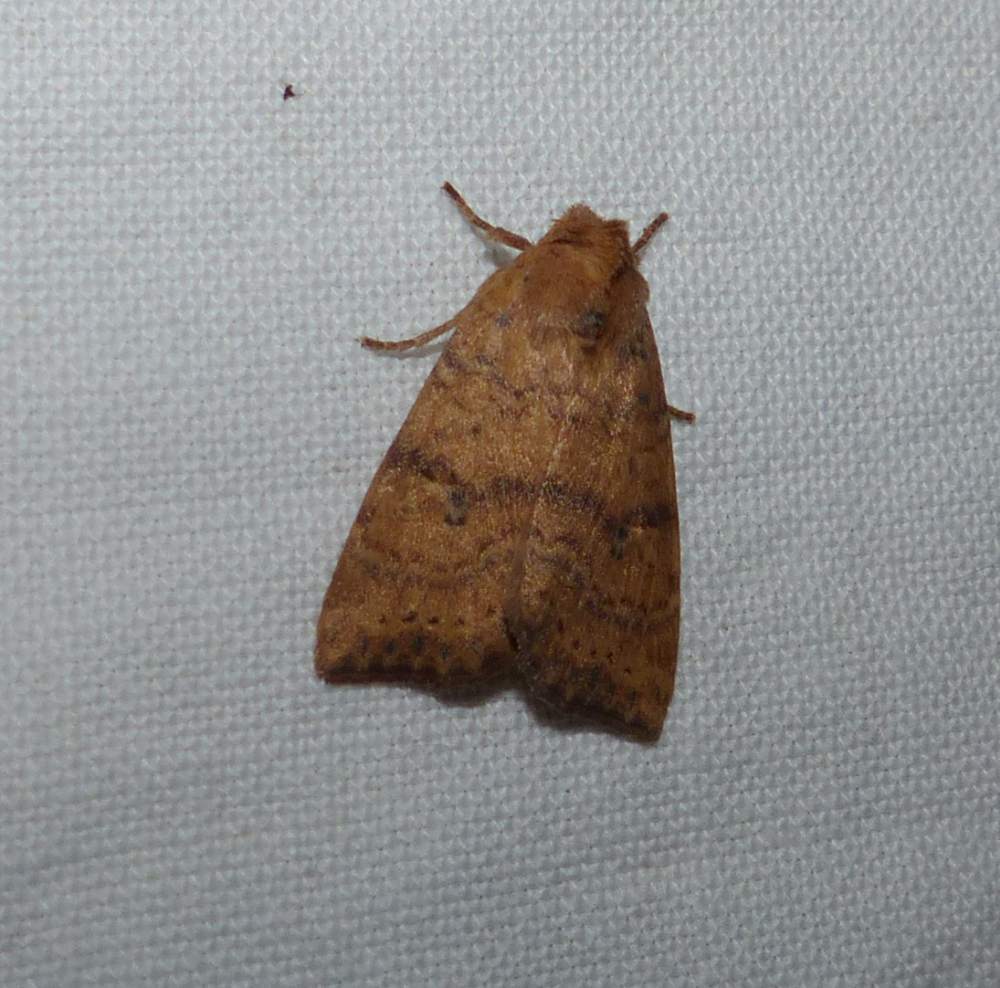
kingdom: Animalia
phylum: Arthropoda
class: Insecta
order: Lepidoptera
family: Noctuidae
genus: Anathix
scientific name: Anathix ralla
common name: Dotted sallow
